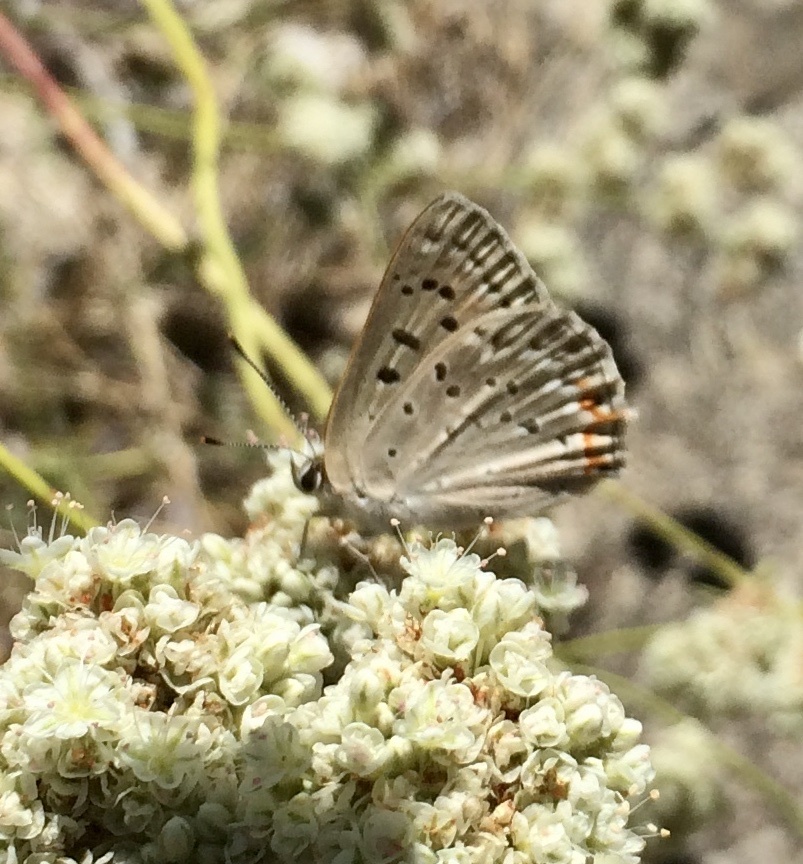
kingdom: Animalia
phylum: Arthropoda
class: Insecta
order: Lepidoptera
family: Lycaenidae
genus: Tharsalea
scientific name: Tharsalea xanthoides
